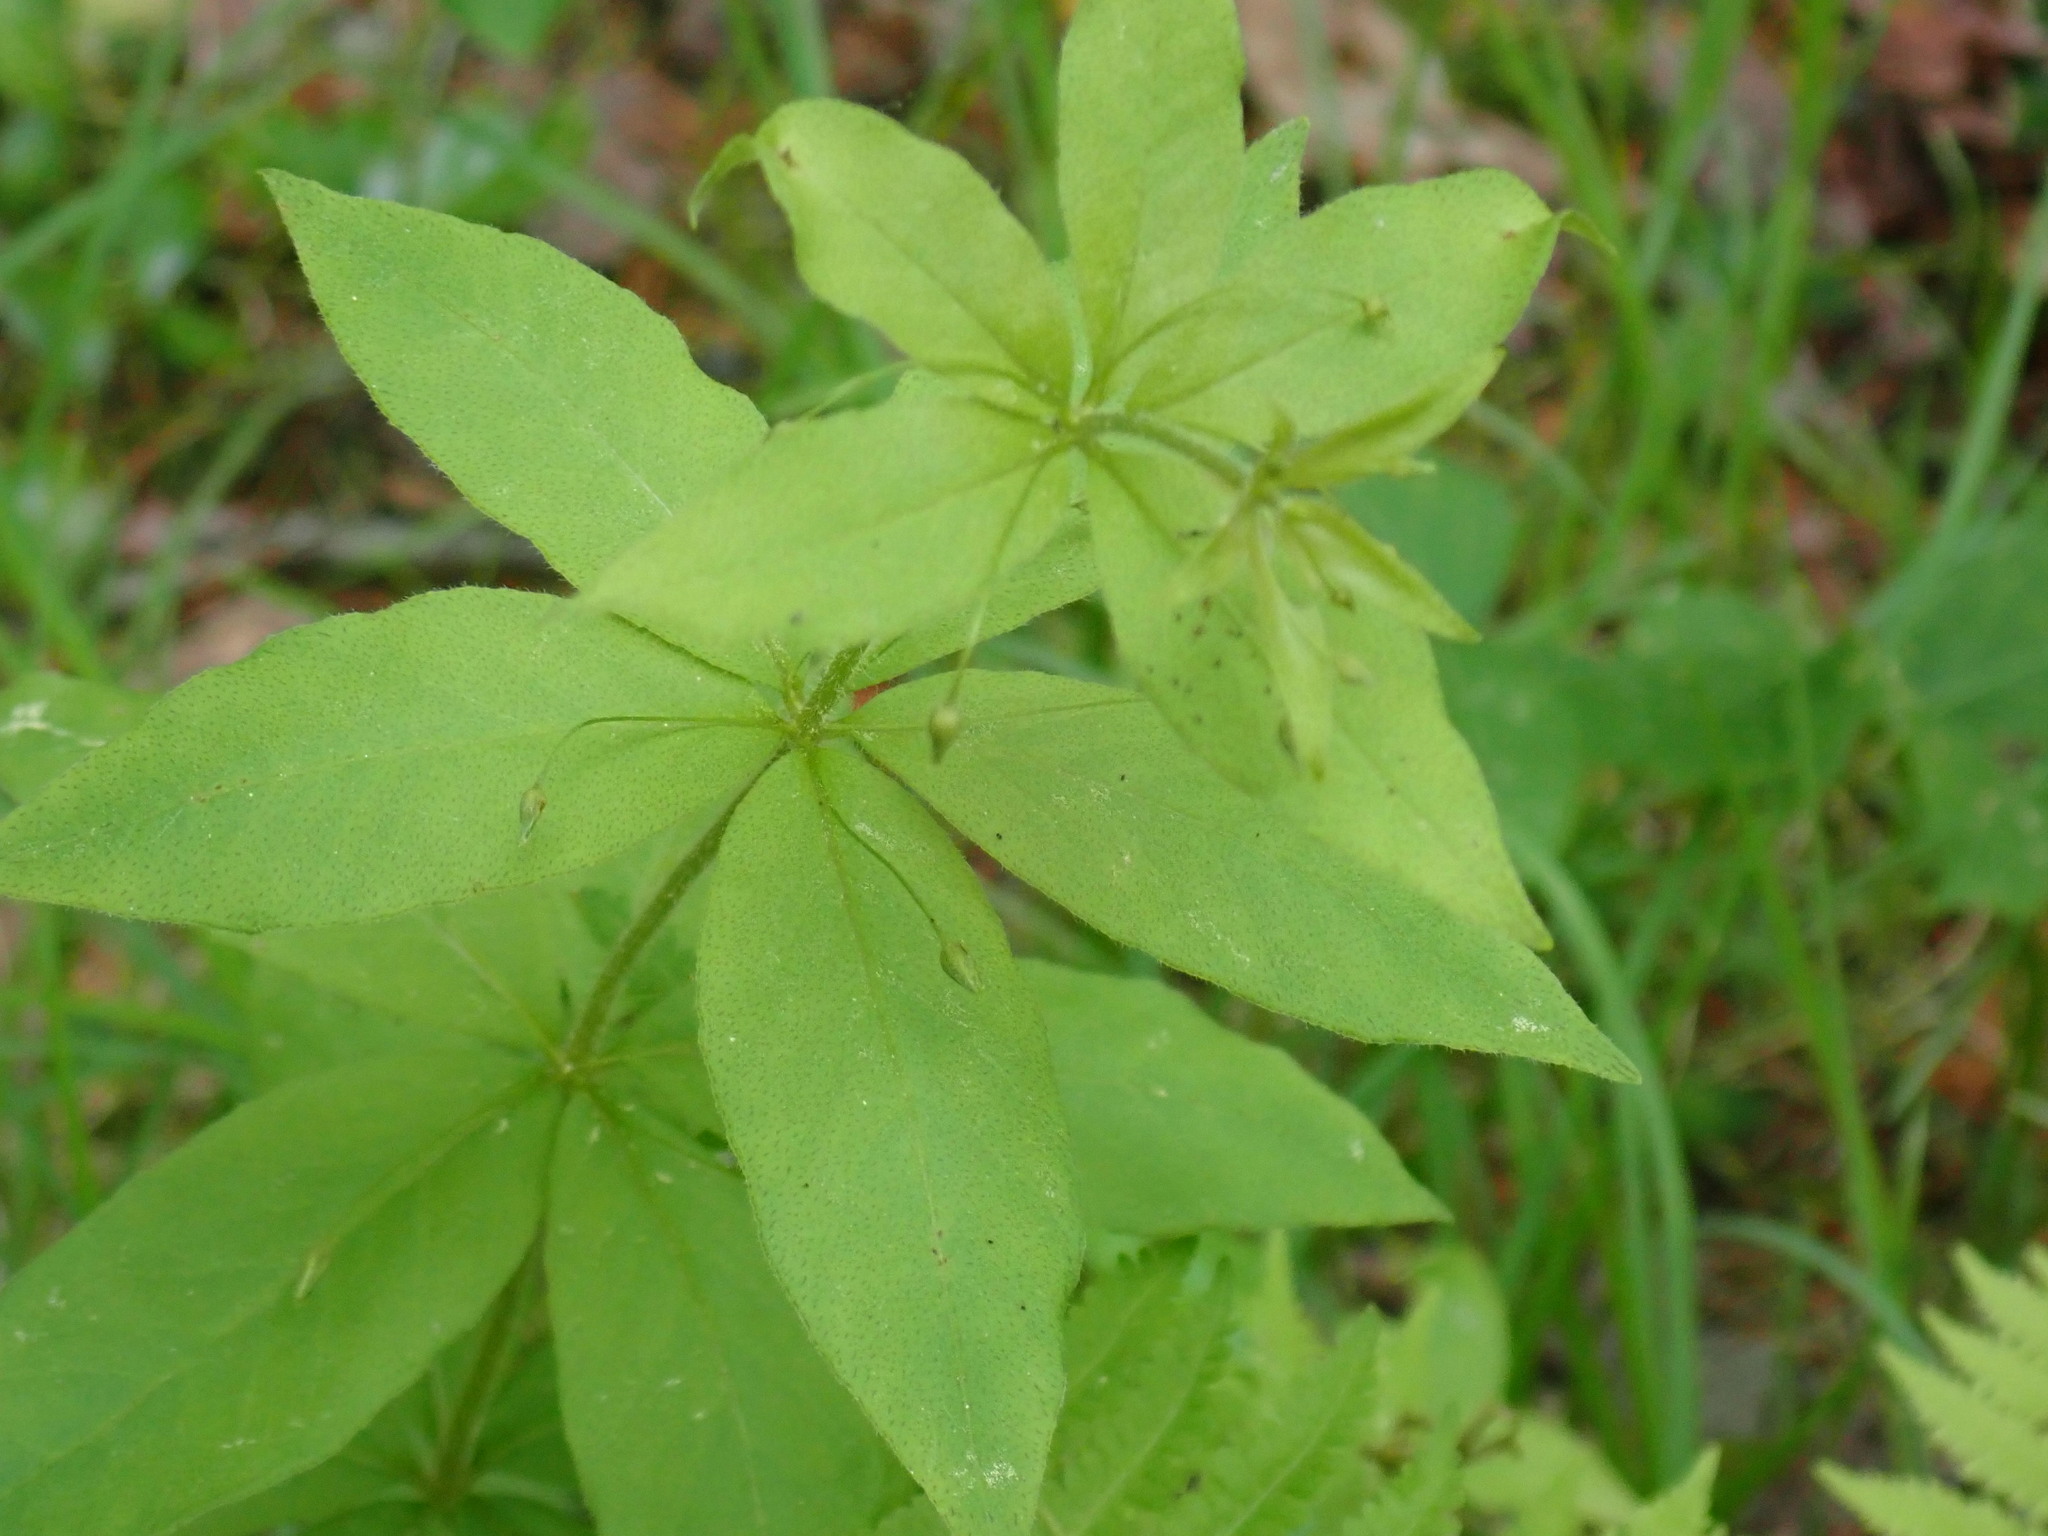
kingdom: Plantae
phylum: Tracheophyta
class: Magnoliopsida
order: Ericales
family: Primulaceae
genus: Lysimachia
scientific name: Lysimachia quadrifolia
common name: Whorled loosestrife
